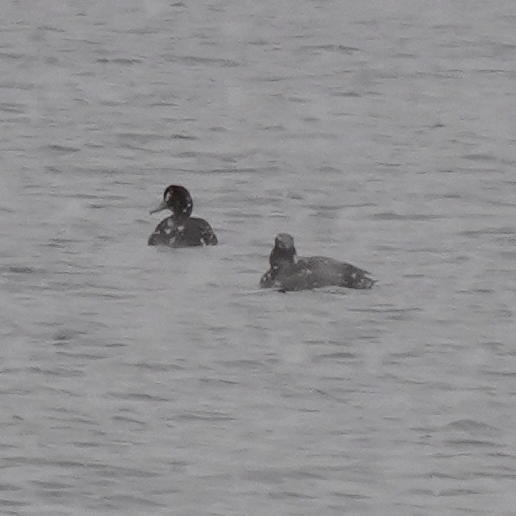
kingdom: Animalia
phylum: Chordata
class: Aves
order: Anseriformes
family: Anatidae
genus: Aythya
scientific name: Aythya americana
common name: Redhead
